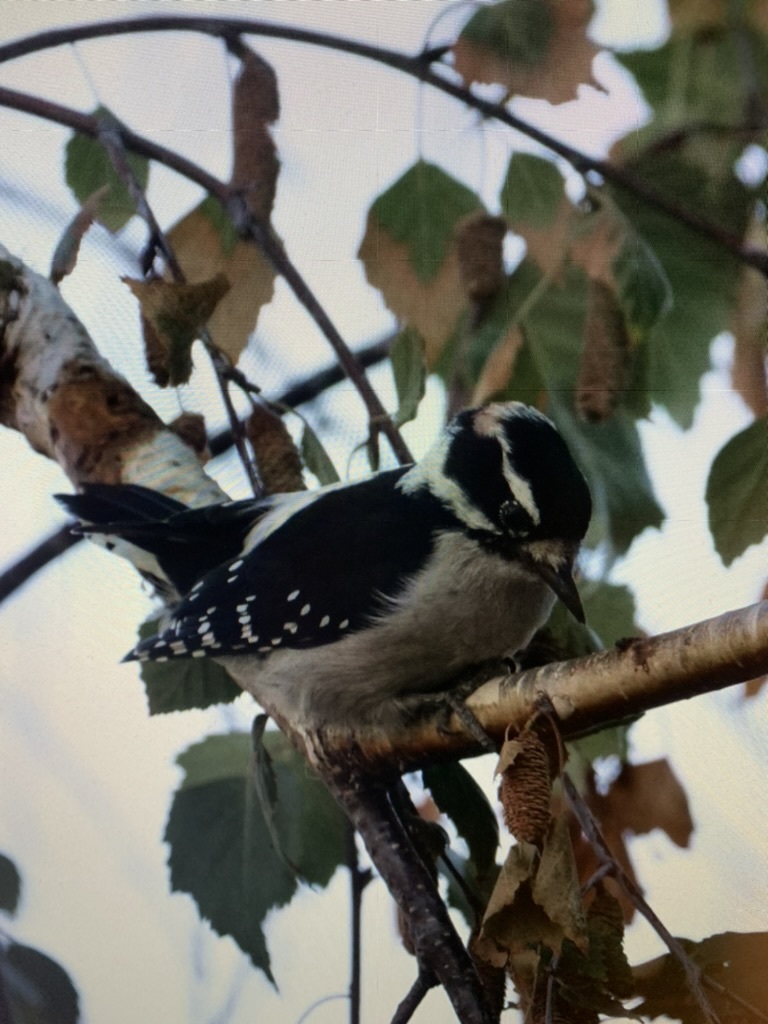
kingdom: Animalia
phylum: Chordata
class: Aves
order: Piciformes
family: Picidae
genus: Dryobates
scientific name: Dryobates pubescens
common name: Downy woodpecker
